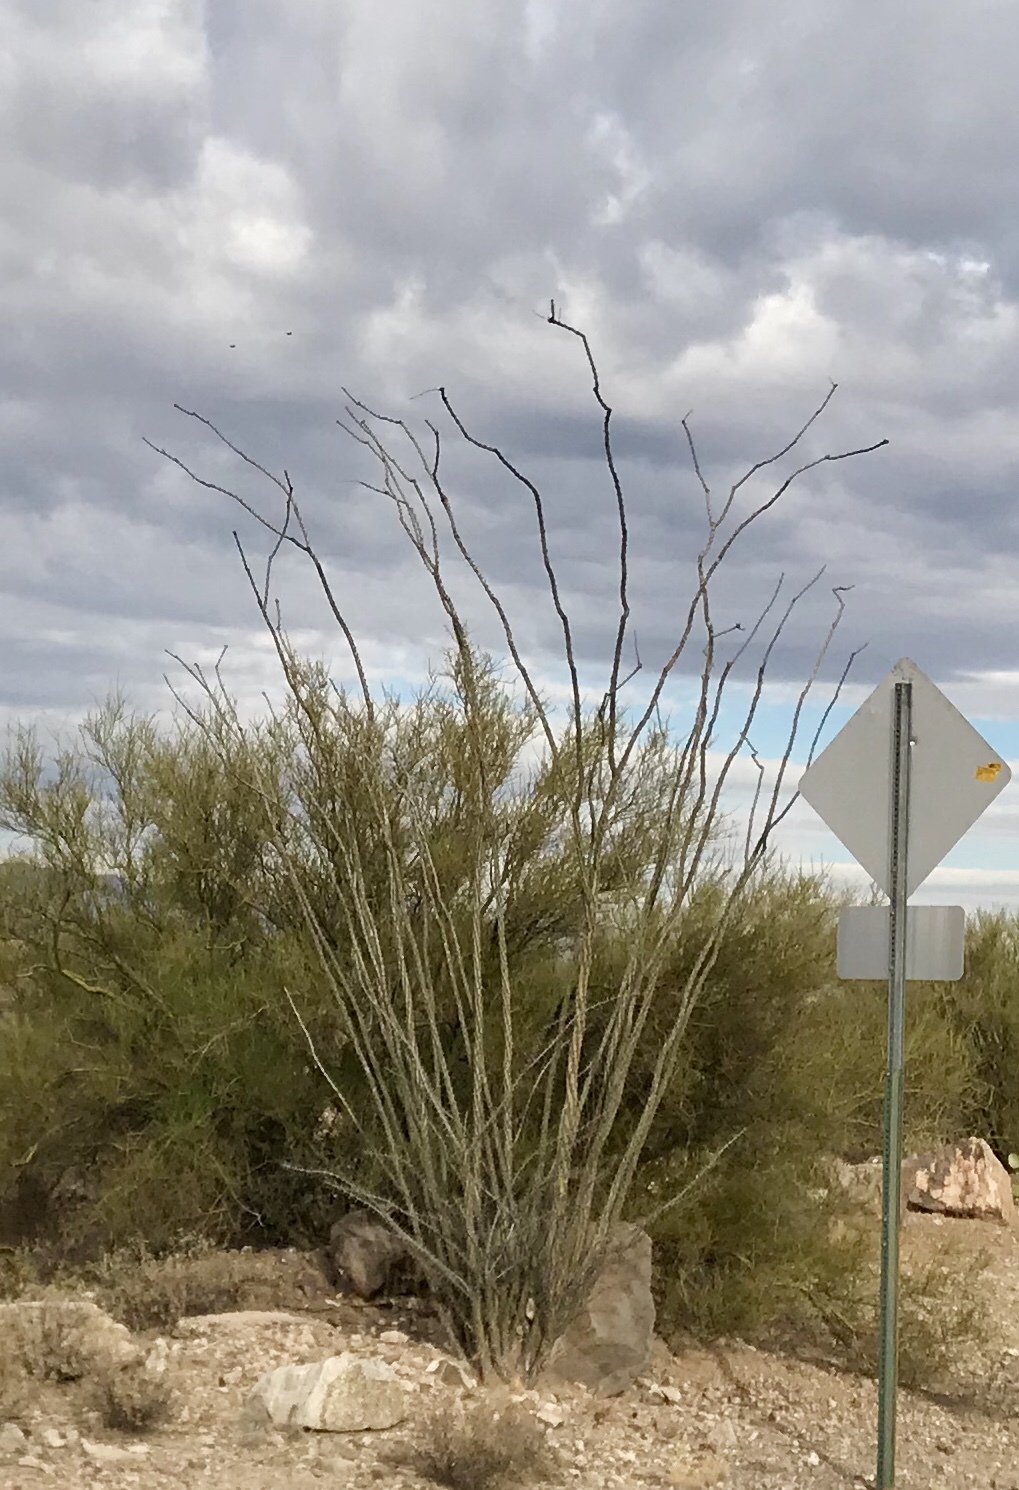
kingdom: Plantae
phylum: Tracheophyta
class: Magnoliopsida
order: Ericales
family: Fouquieriaceae
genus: Fouquieria
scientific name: Fouquieria splendens
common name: Vine-cactus
